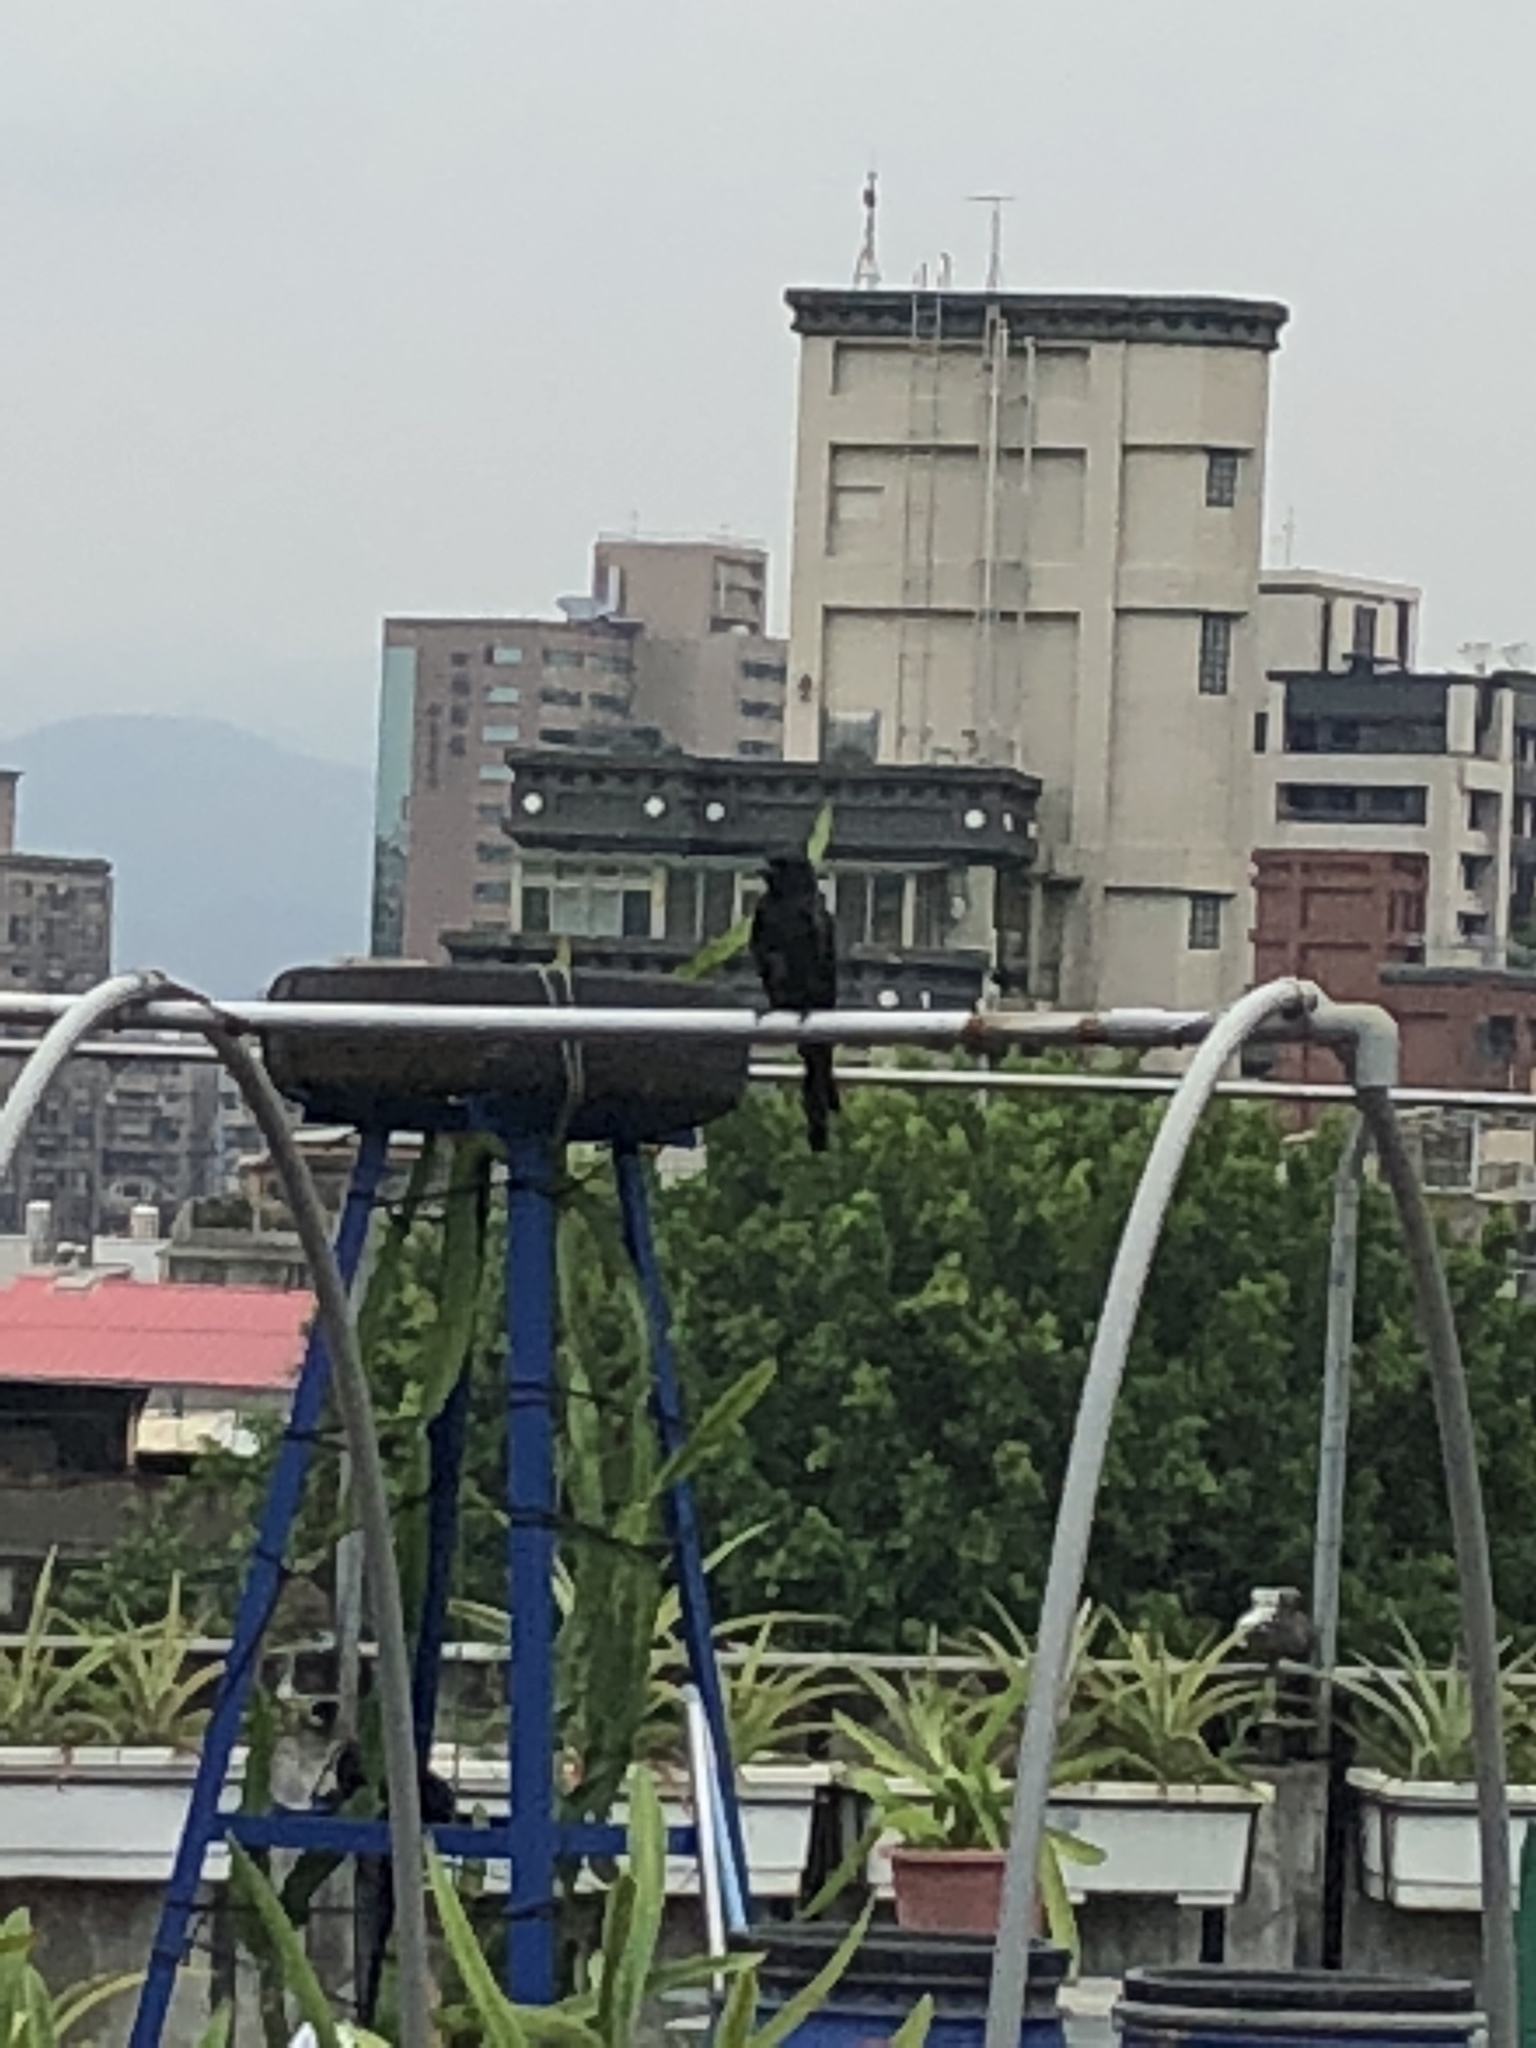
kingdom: Animalia
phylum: Chordata
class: Aves
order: Passeriformes
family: Dicruridae
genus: Dicrurus
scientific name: Dicrurus macrocercus
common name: Black drongo
